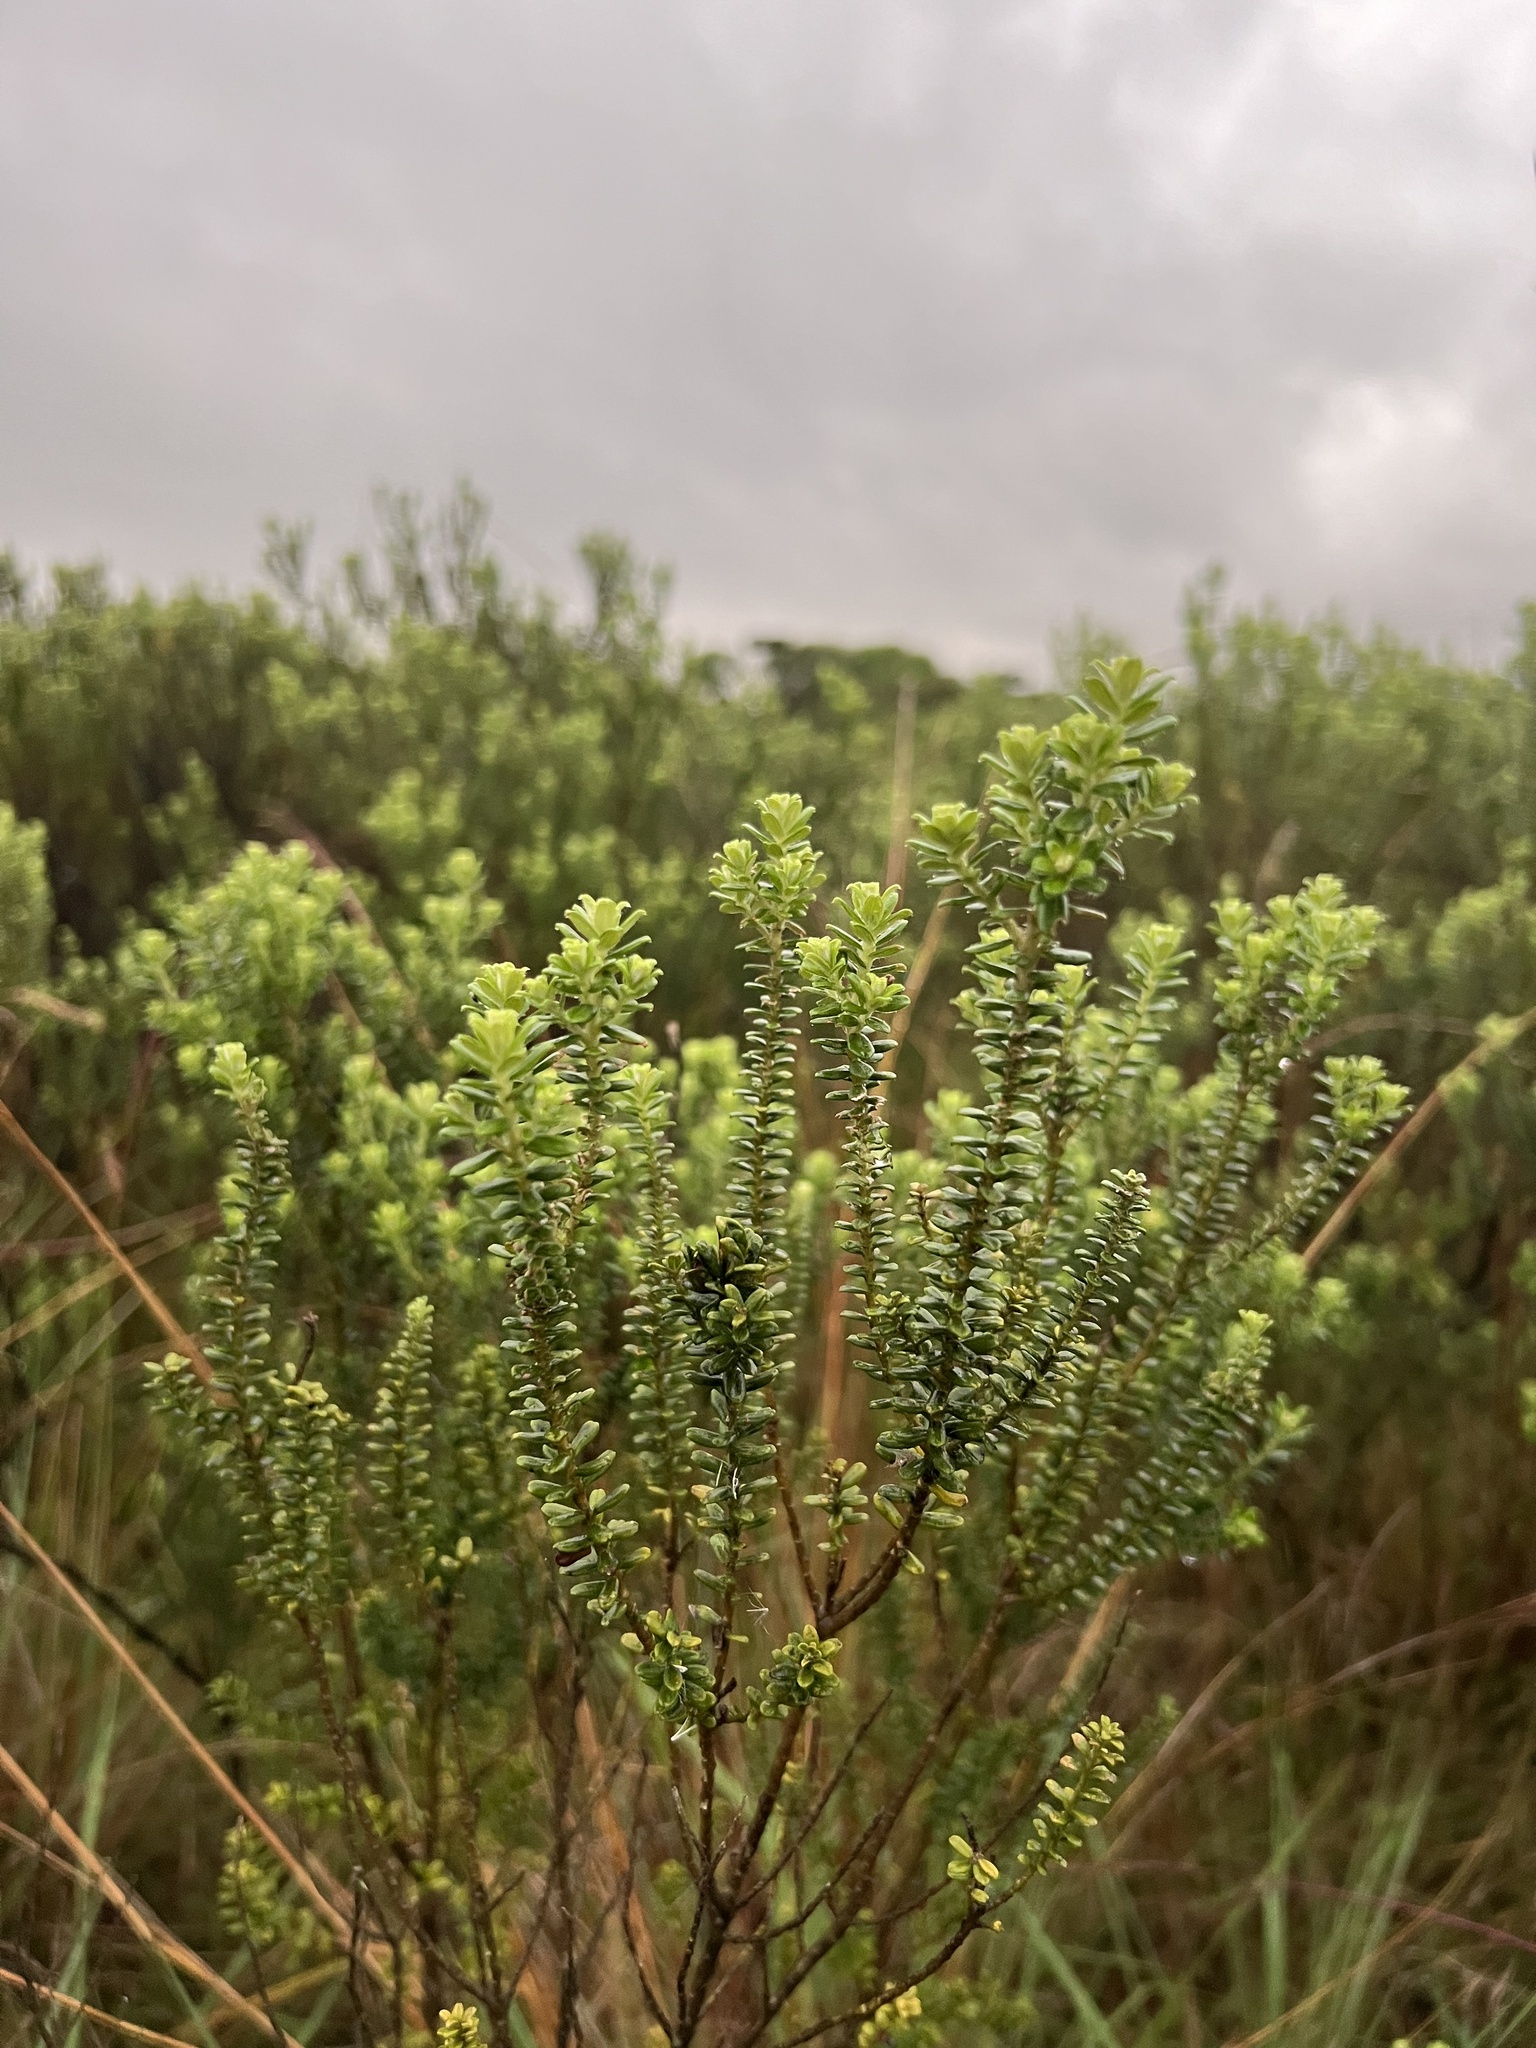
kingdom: Plantae
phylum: Tracheophyta
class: Magnoliopsida
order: Asterales
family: Asteraceae
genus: Baccharis
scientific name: Baccharis uncinella
